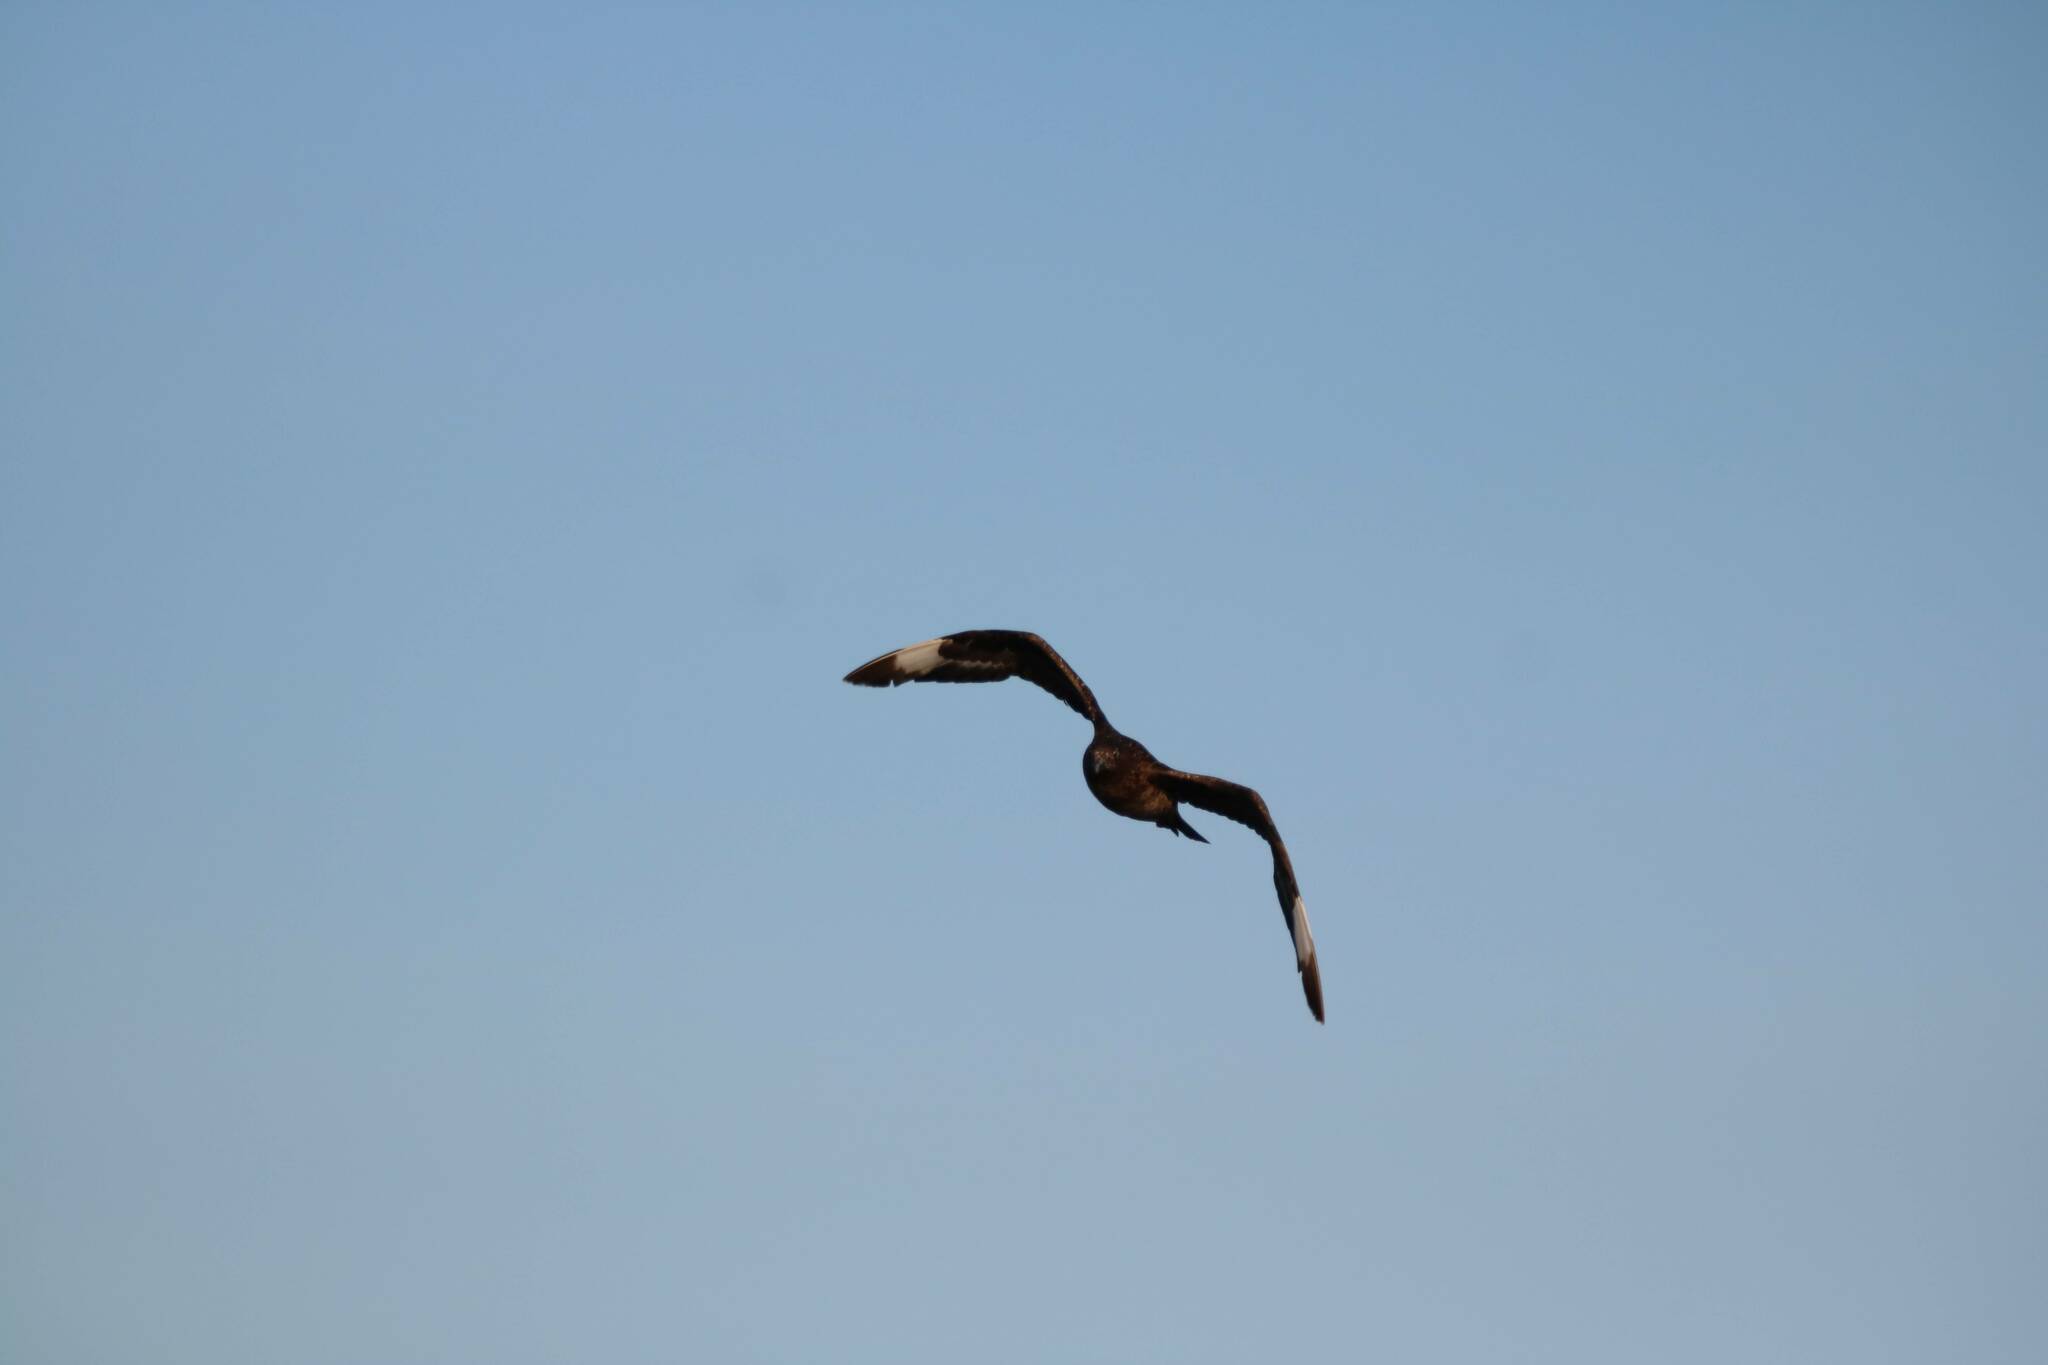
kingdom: Animalia
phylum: Chordata
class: Aves
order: Charadriiformes
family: Stercorariidae
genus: Stercorarius
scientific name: Stercorarius skua
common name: Great skua
